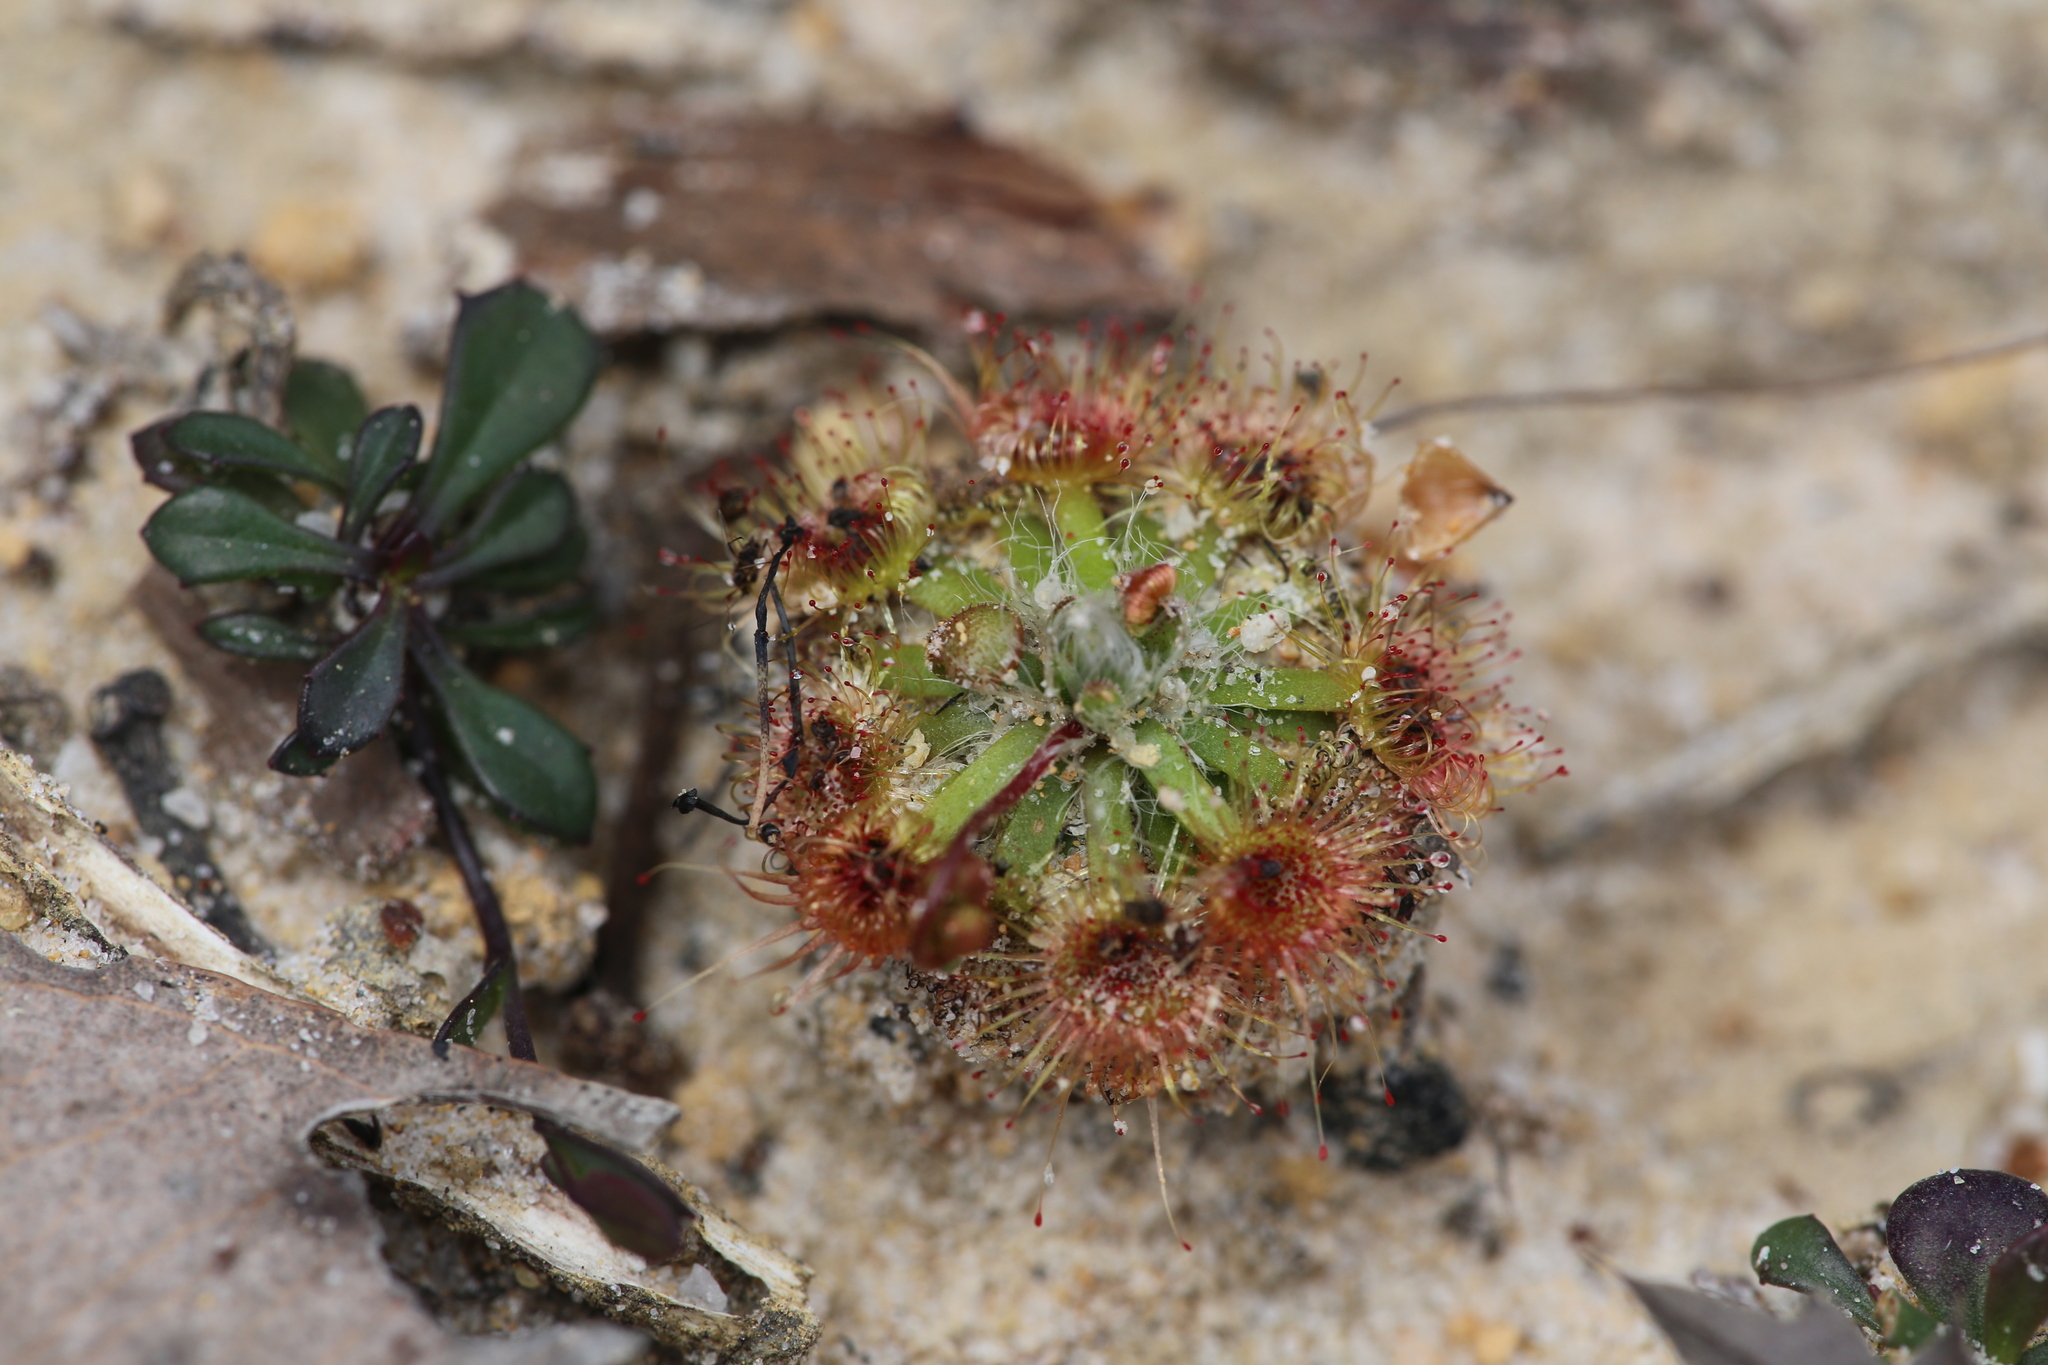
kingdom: Plantae
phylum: Tracheophyta
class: Magnoliopsida
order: Caryophyllales
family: Droseraceae
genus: Drosera
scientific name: Drosera platystigma
